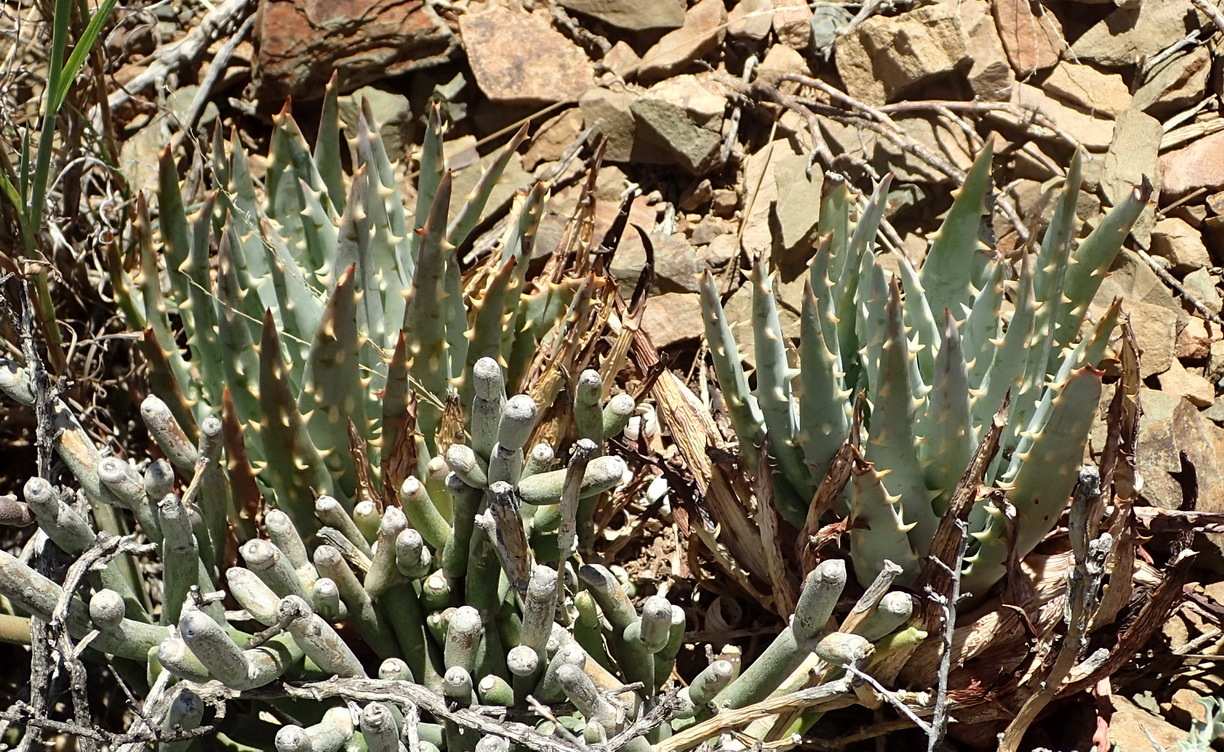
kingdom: Plantae
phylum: Tracheophyta
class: Liliopsida
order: Asparagales
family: Asphodelaceae
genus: Aloe
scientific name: Aloe longistyla
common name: Karoo aloe
